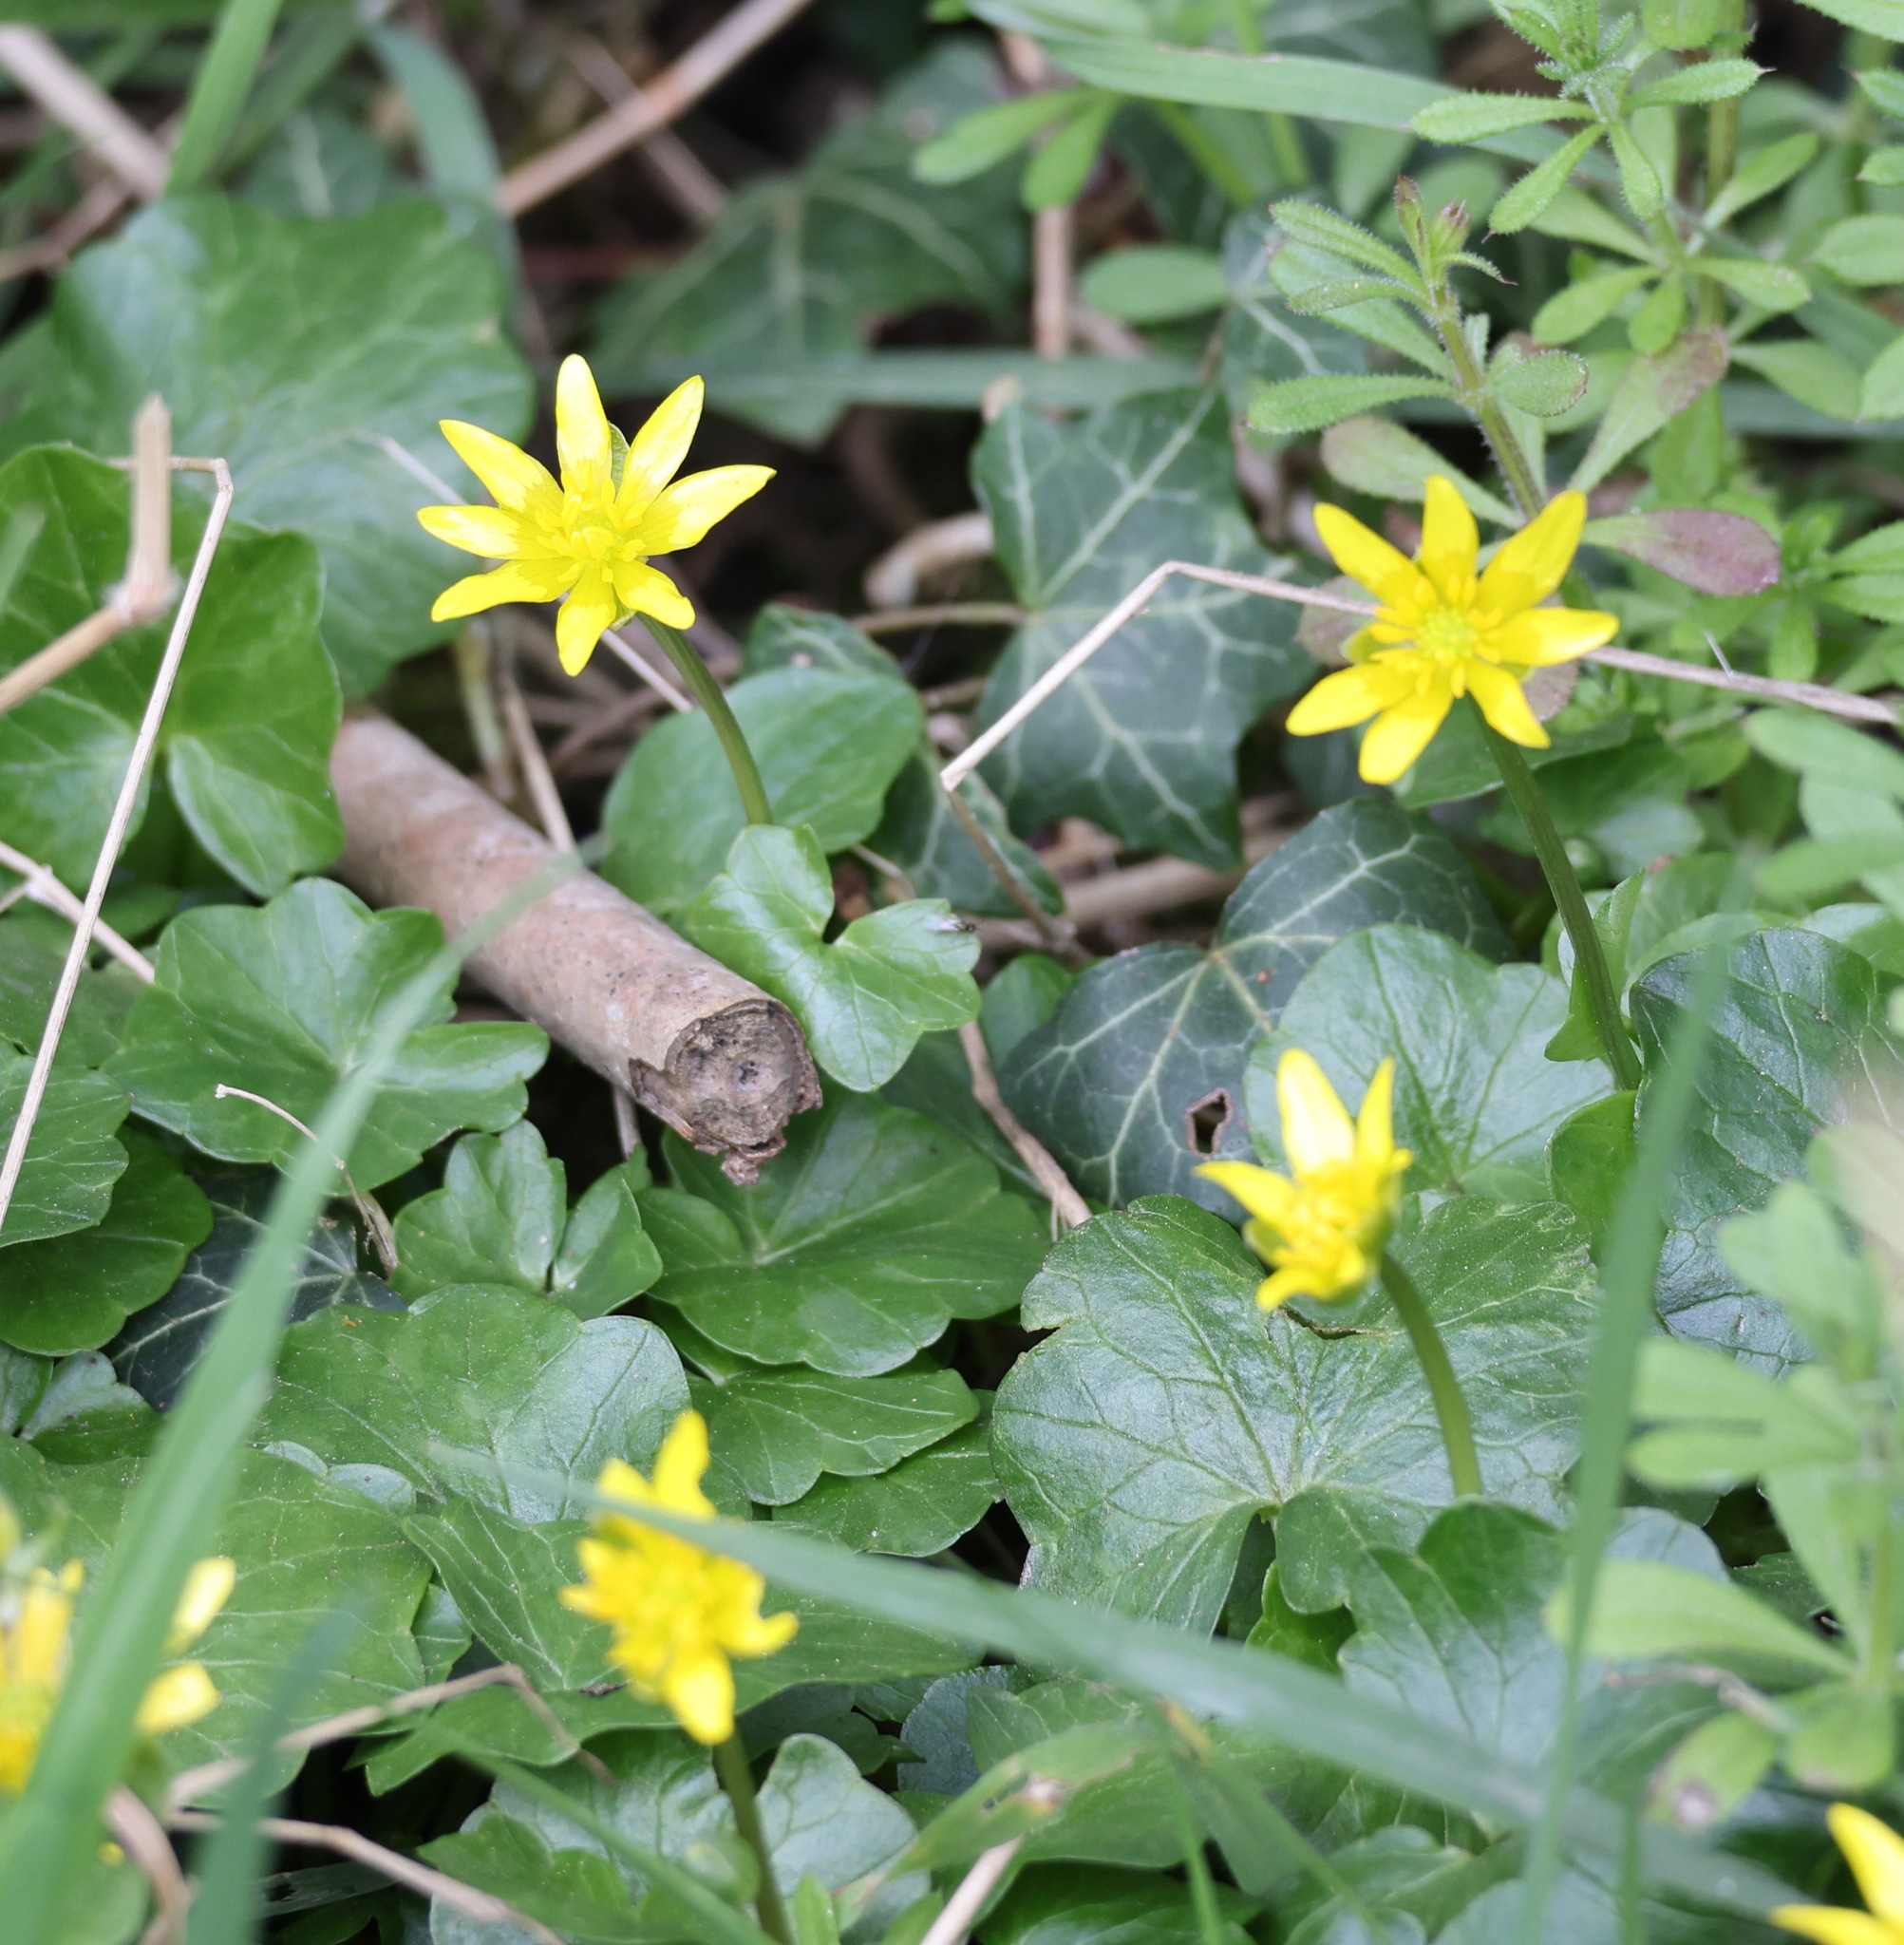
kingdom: Plantae
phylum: Tracheophyta
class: Magnoliopsida
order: Ranunculales
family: Ranunculaceae
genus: Ficaria
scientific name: Ficaria verna
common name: Lesser celandine
